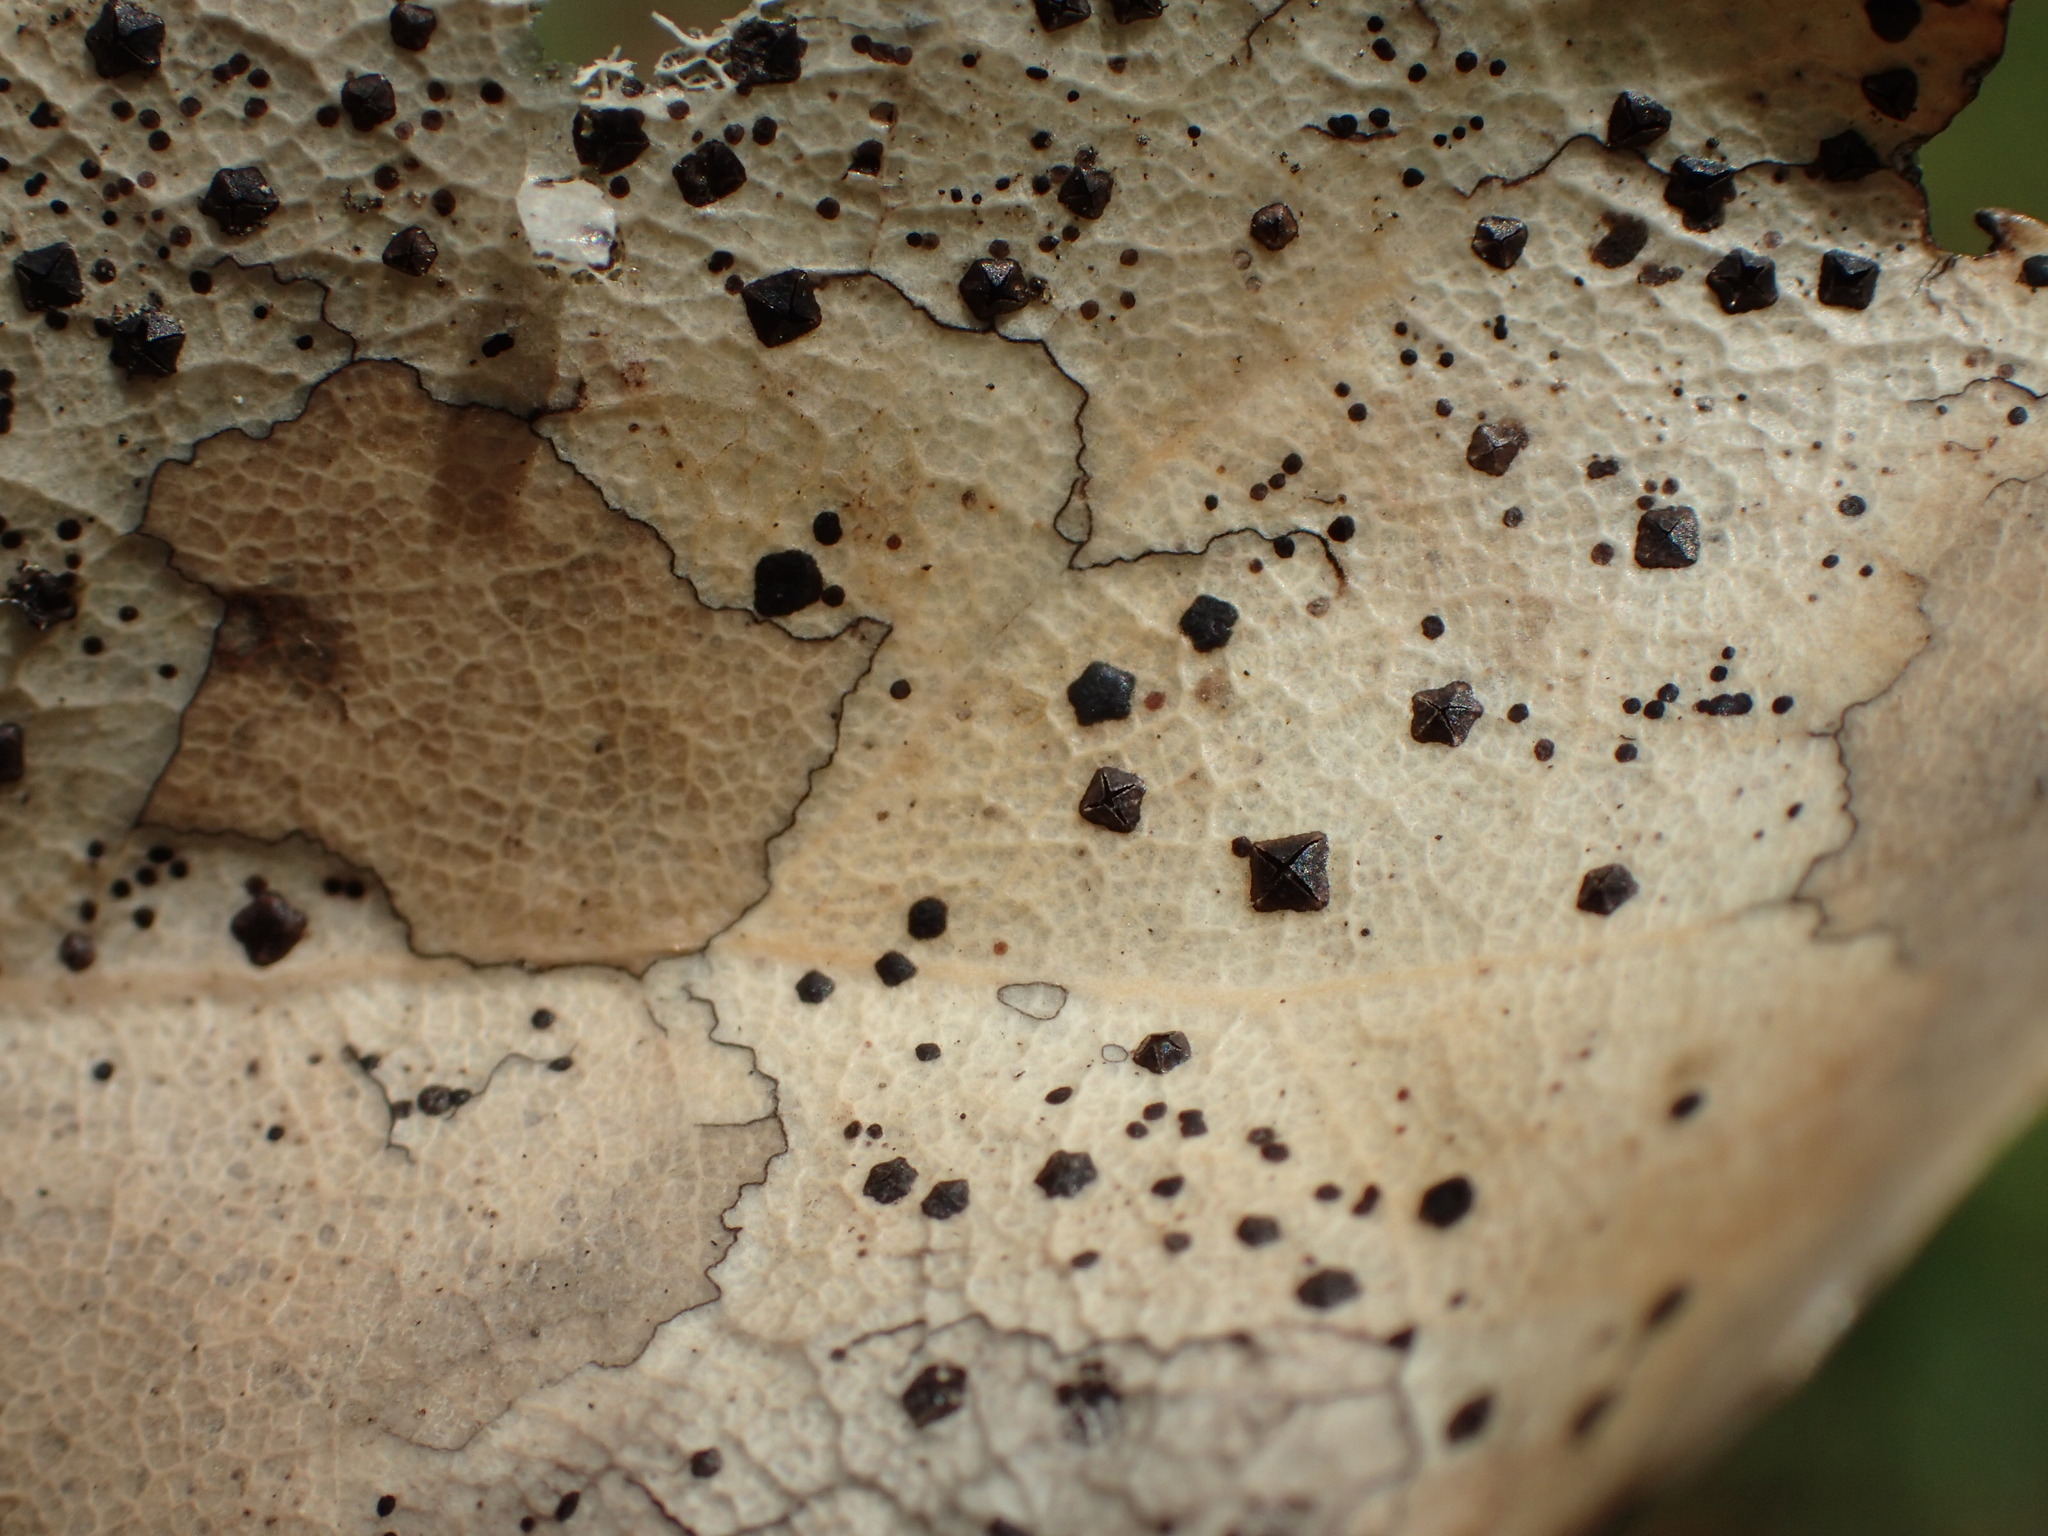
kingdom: Fungi
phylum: Ascomycota
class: Leotiomycetes
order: Rhytismatales
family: Rhytismataceae
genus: Coccomyces
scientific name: Coccomyces dentatus
